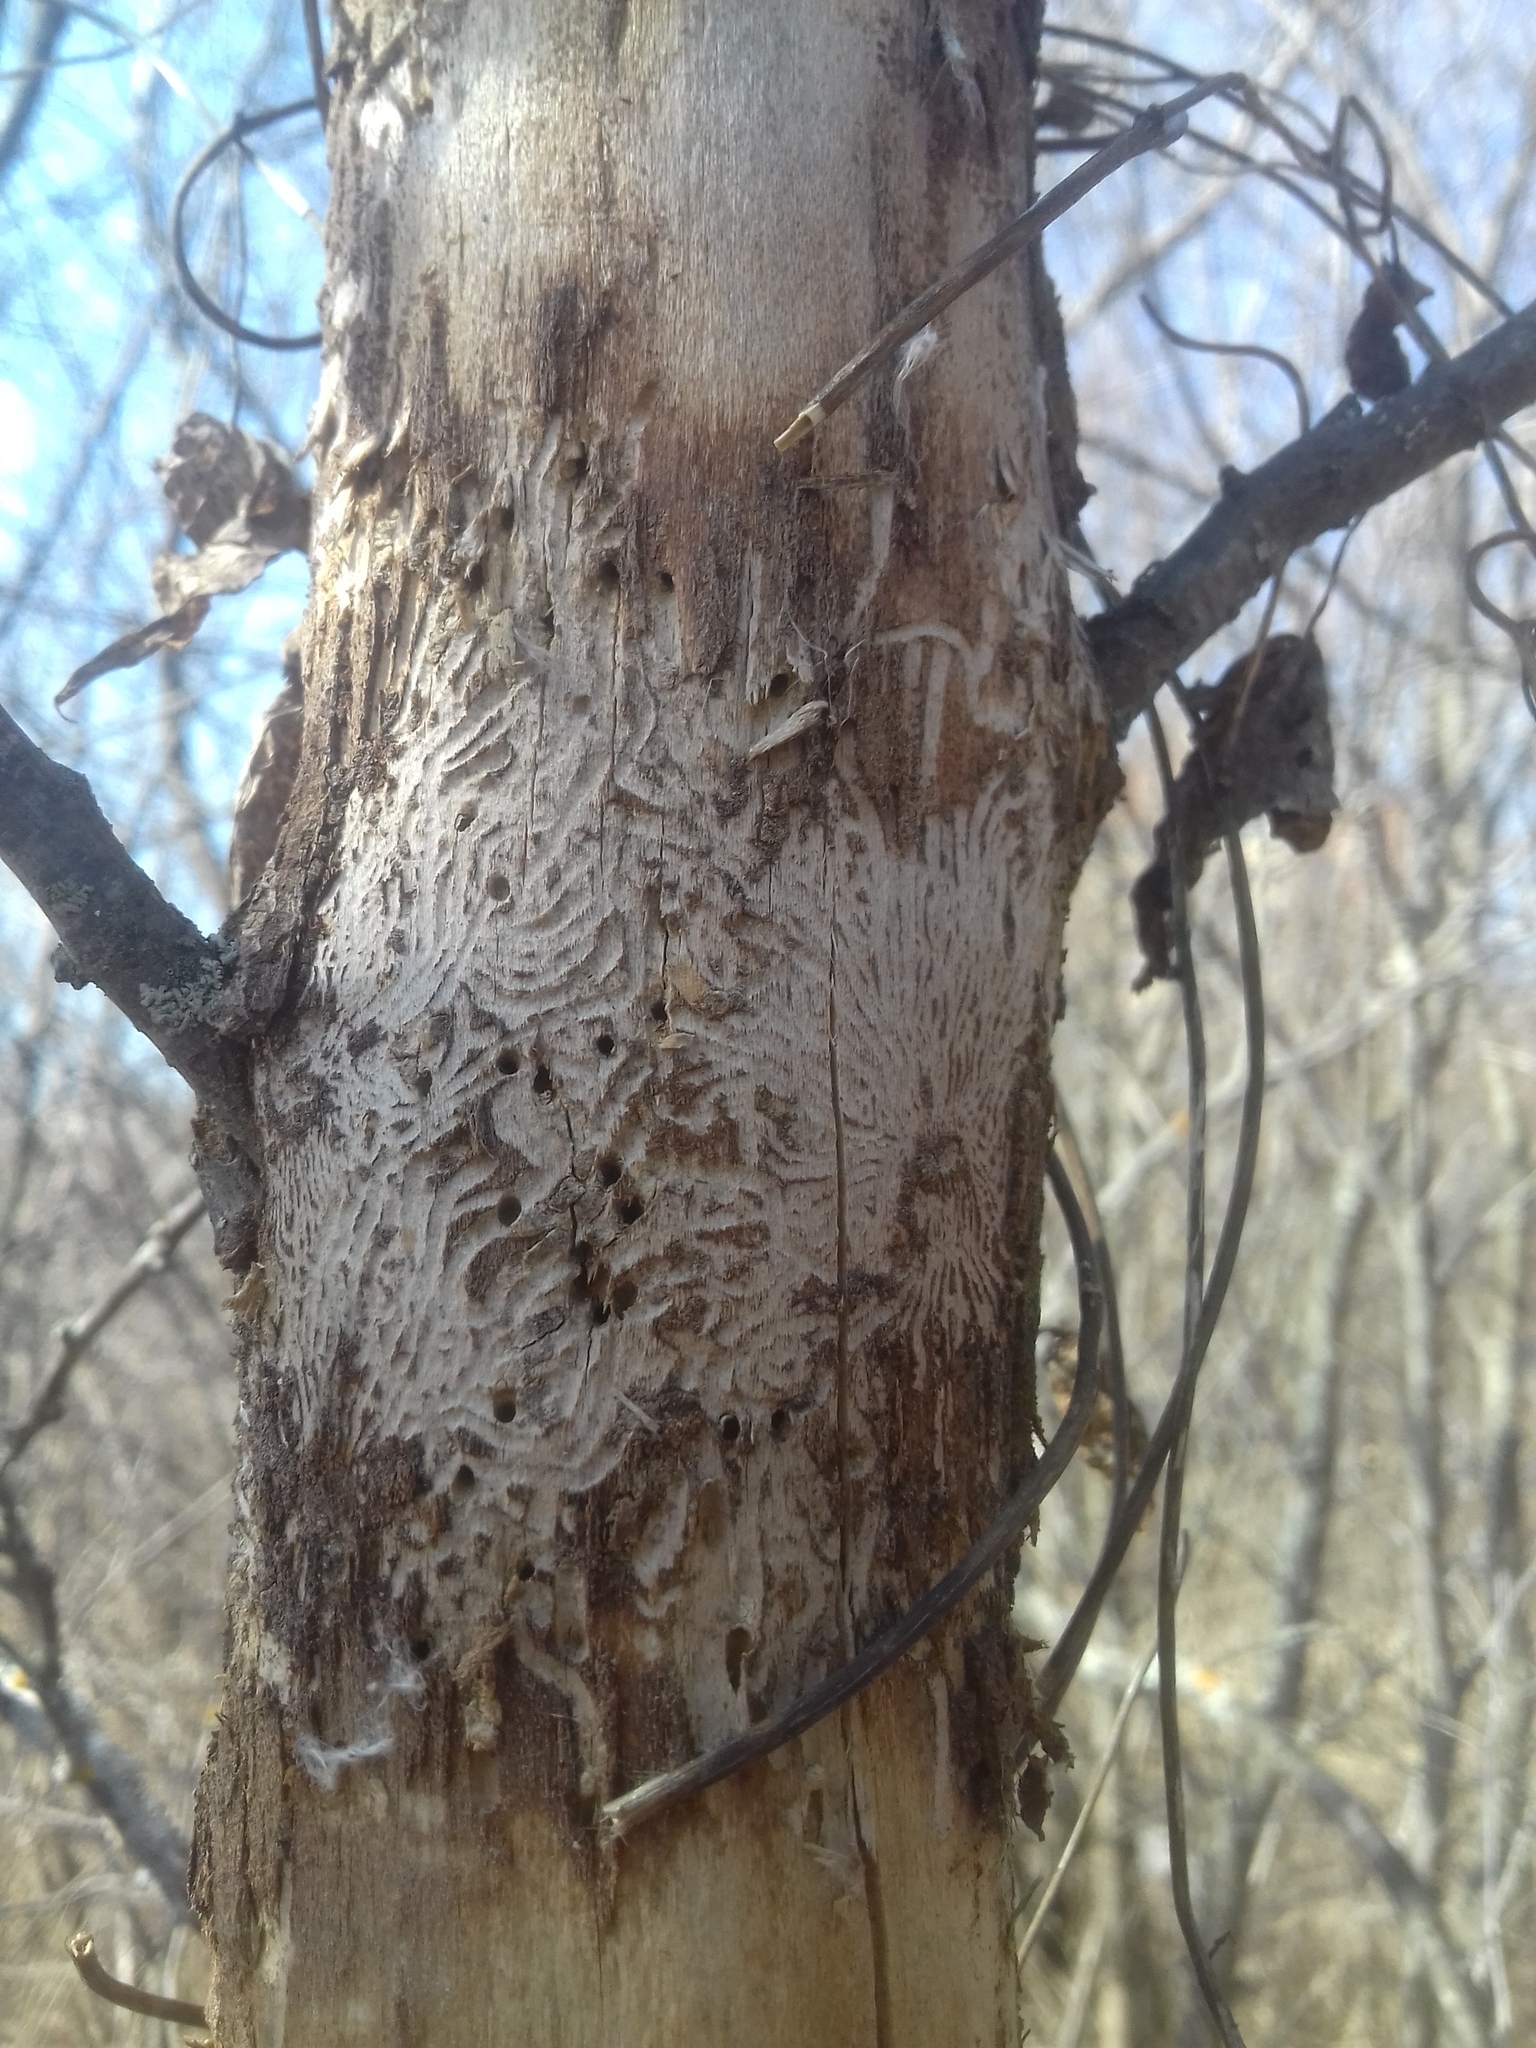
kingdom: Animalia
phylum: Arthropoda
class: Insecta
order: Coleoptera
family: Curculionidae
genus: Scolytus
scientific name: Scolytus rugulosus
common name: Fruit bark beetle
